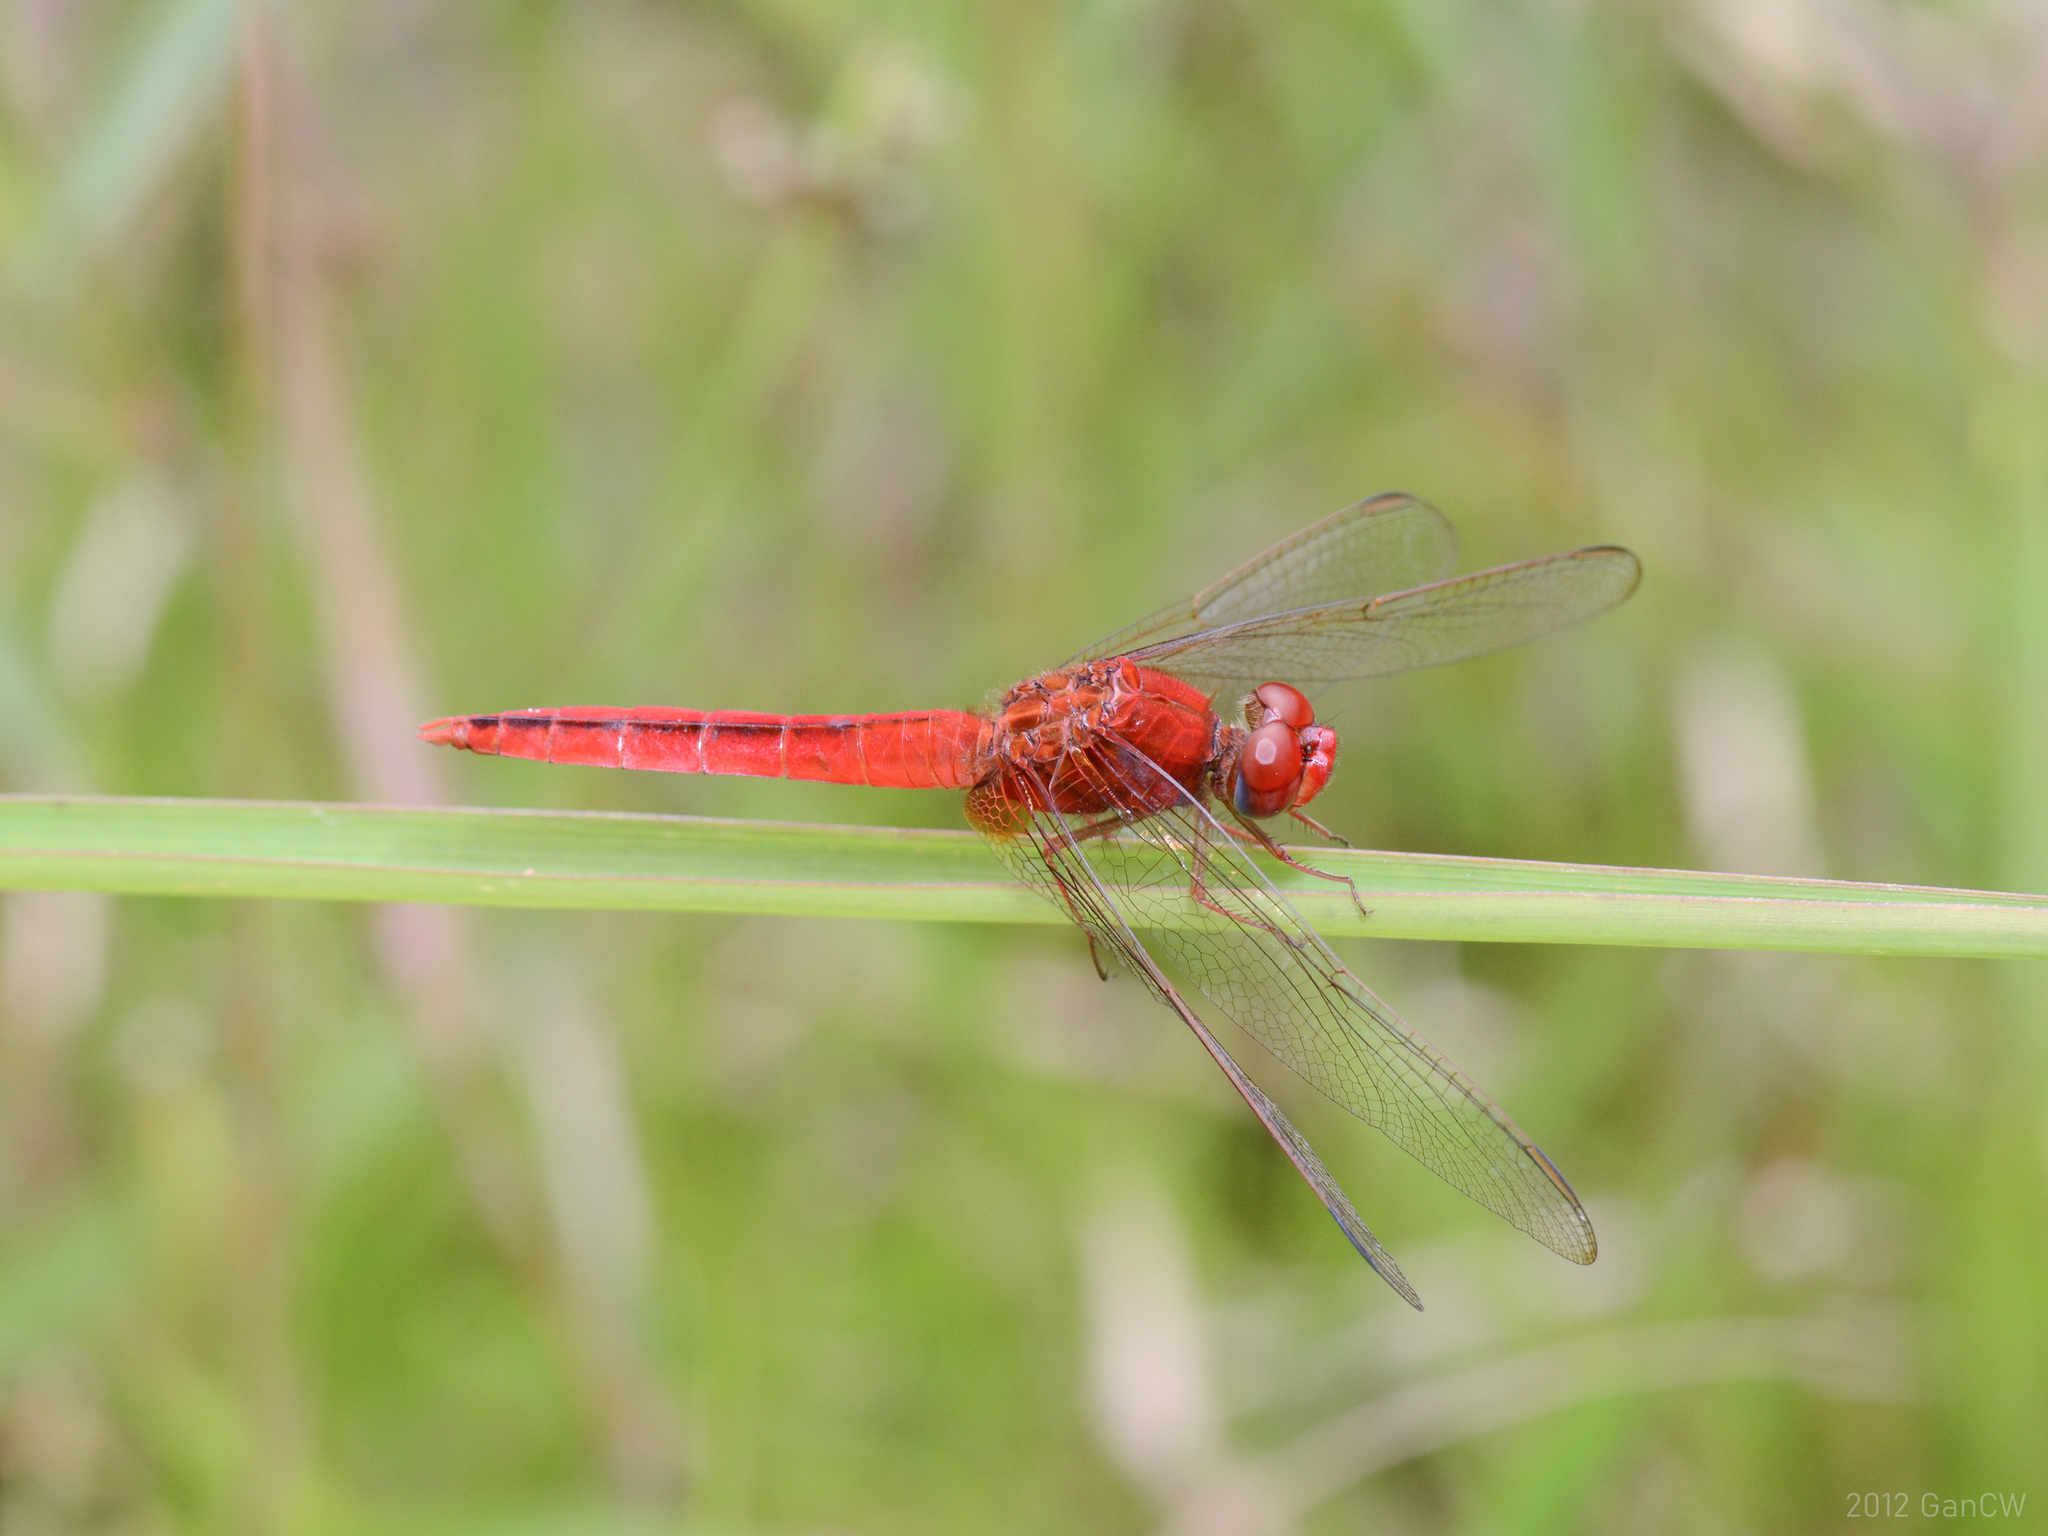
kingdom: Animalia
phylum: Arthropoda
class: Insecta
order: Odonata
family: Libellulidae
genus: Crocothemis
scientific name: Crocothemis servilia
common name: Scarlet skimmer
